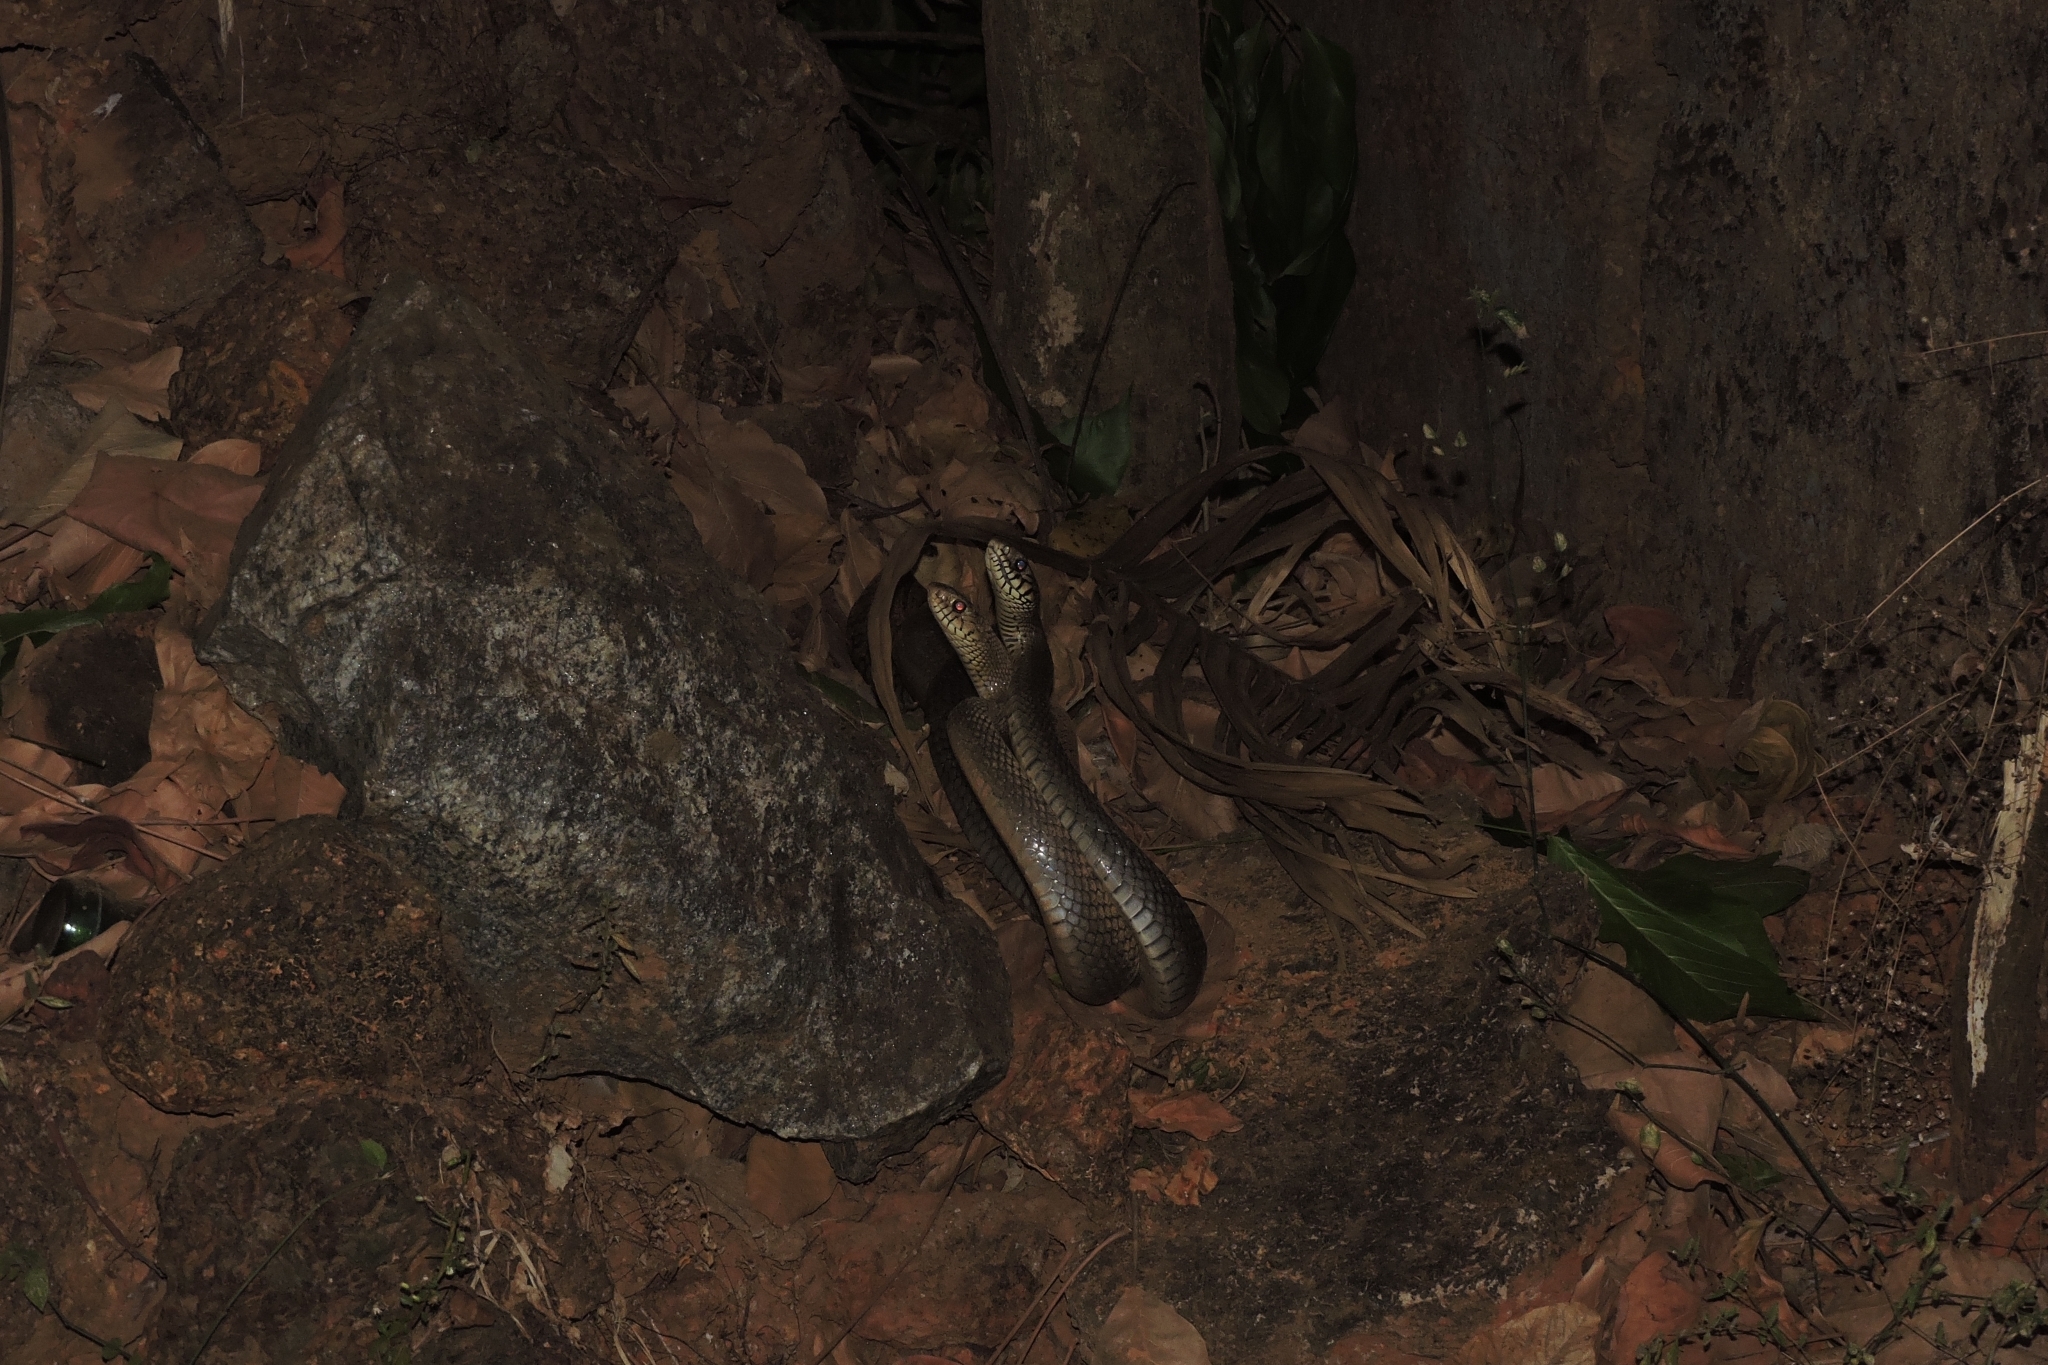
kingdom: Animalia
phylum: Chordata
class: Squamata
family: Colubridae
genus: Ptyas
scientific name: Ptyas mucosa
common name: Oriental ratsnake
